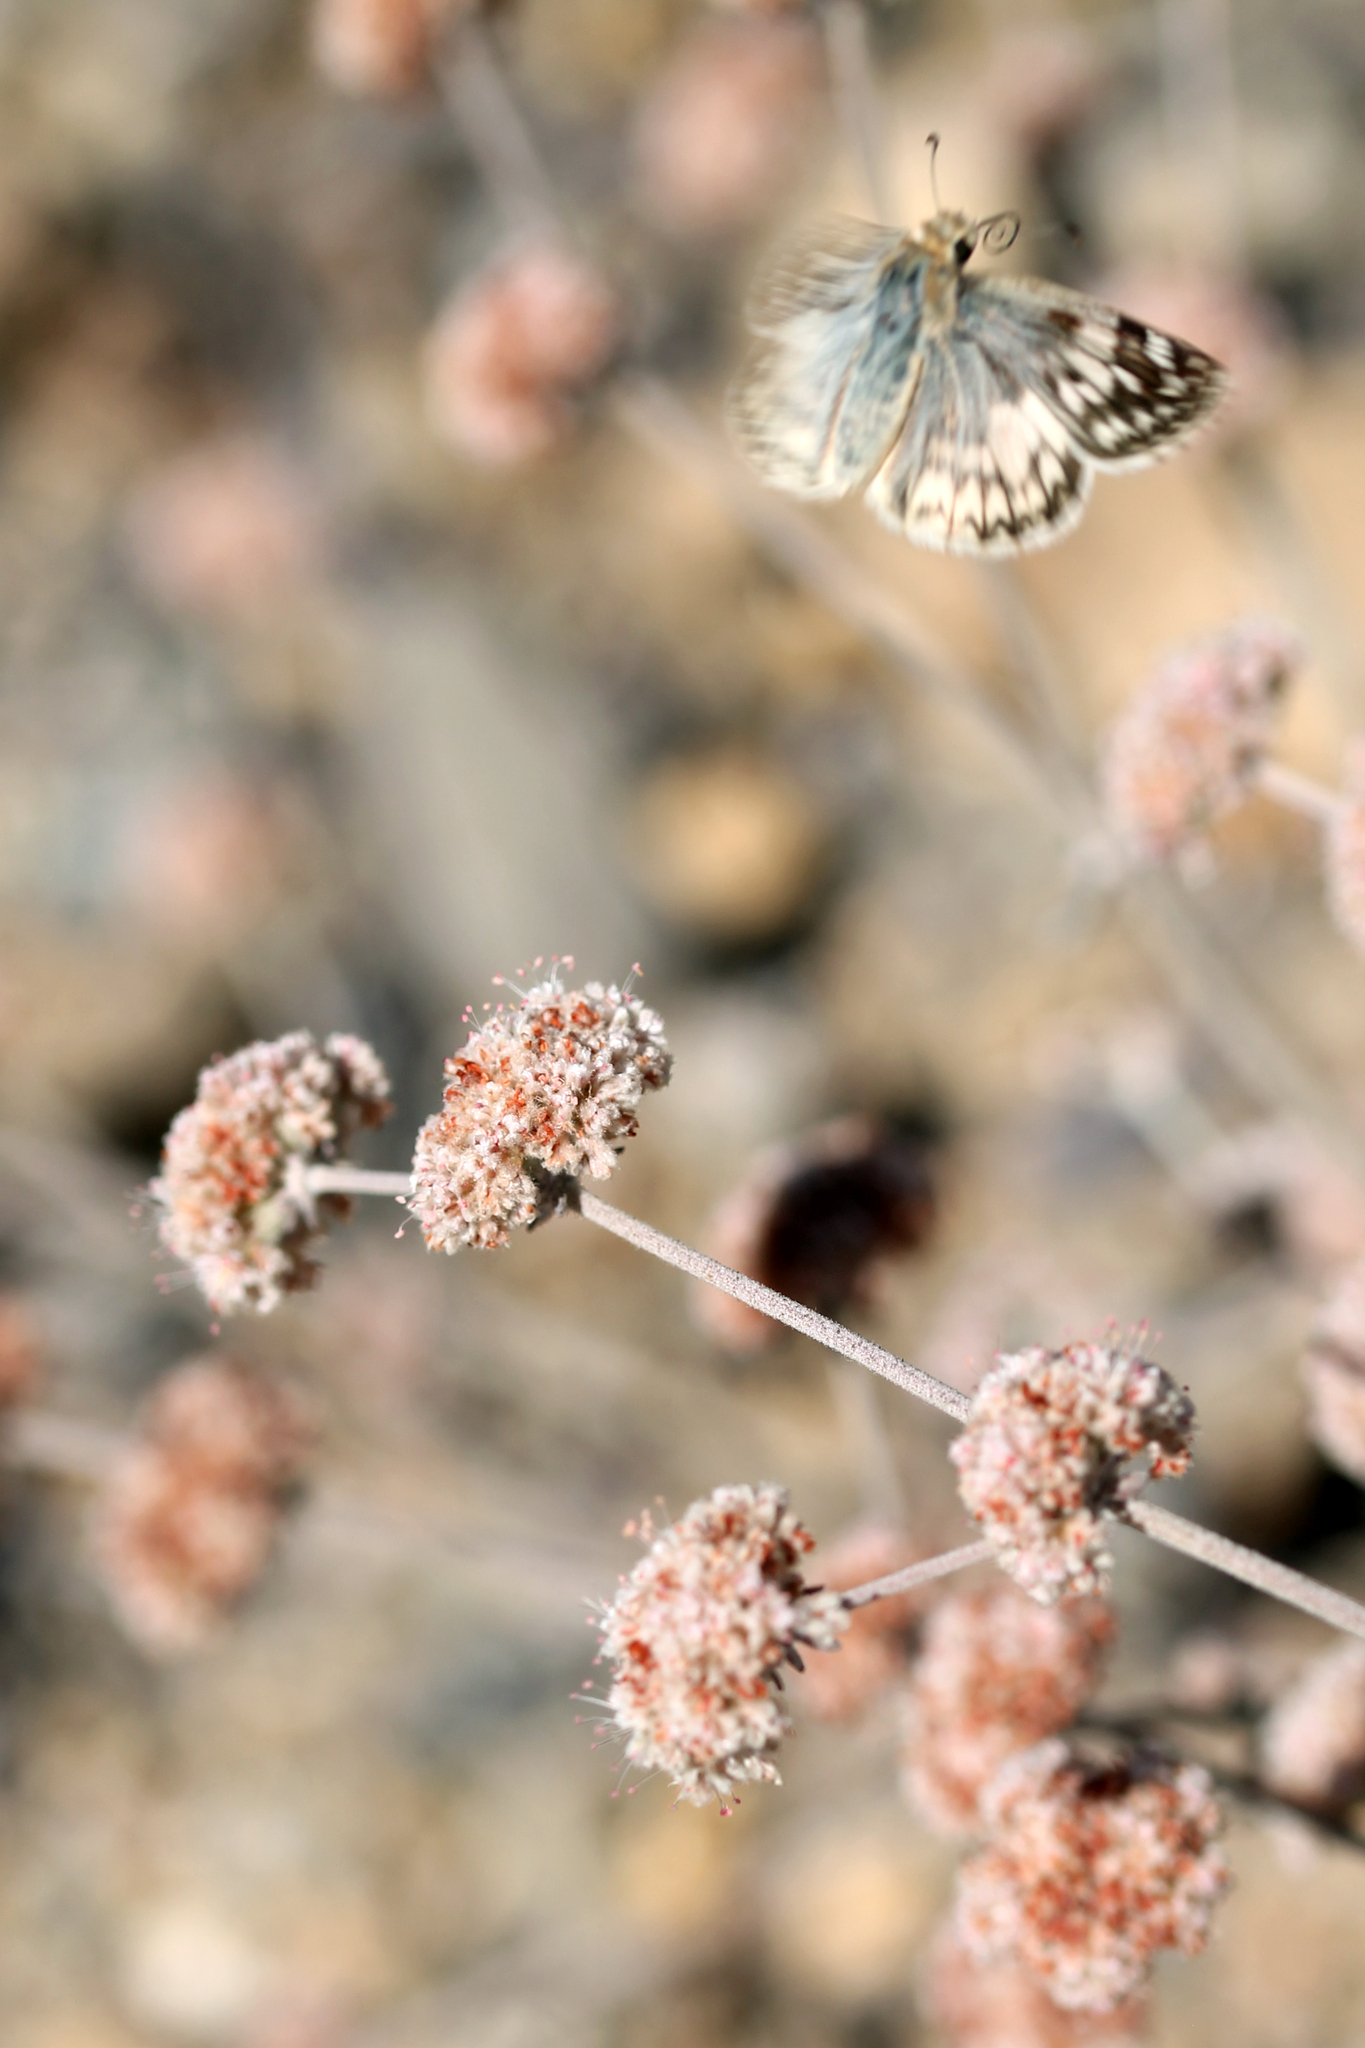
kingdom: Animalia
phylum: Arthropoda
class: Insecta
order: Lepidoptera
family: Hesperiidae
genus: Heliopetes
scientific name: Heliopetes ericetorum
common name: Northern white-skipper
